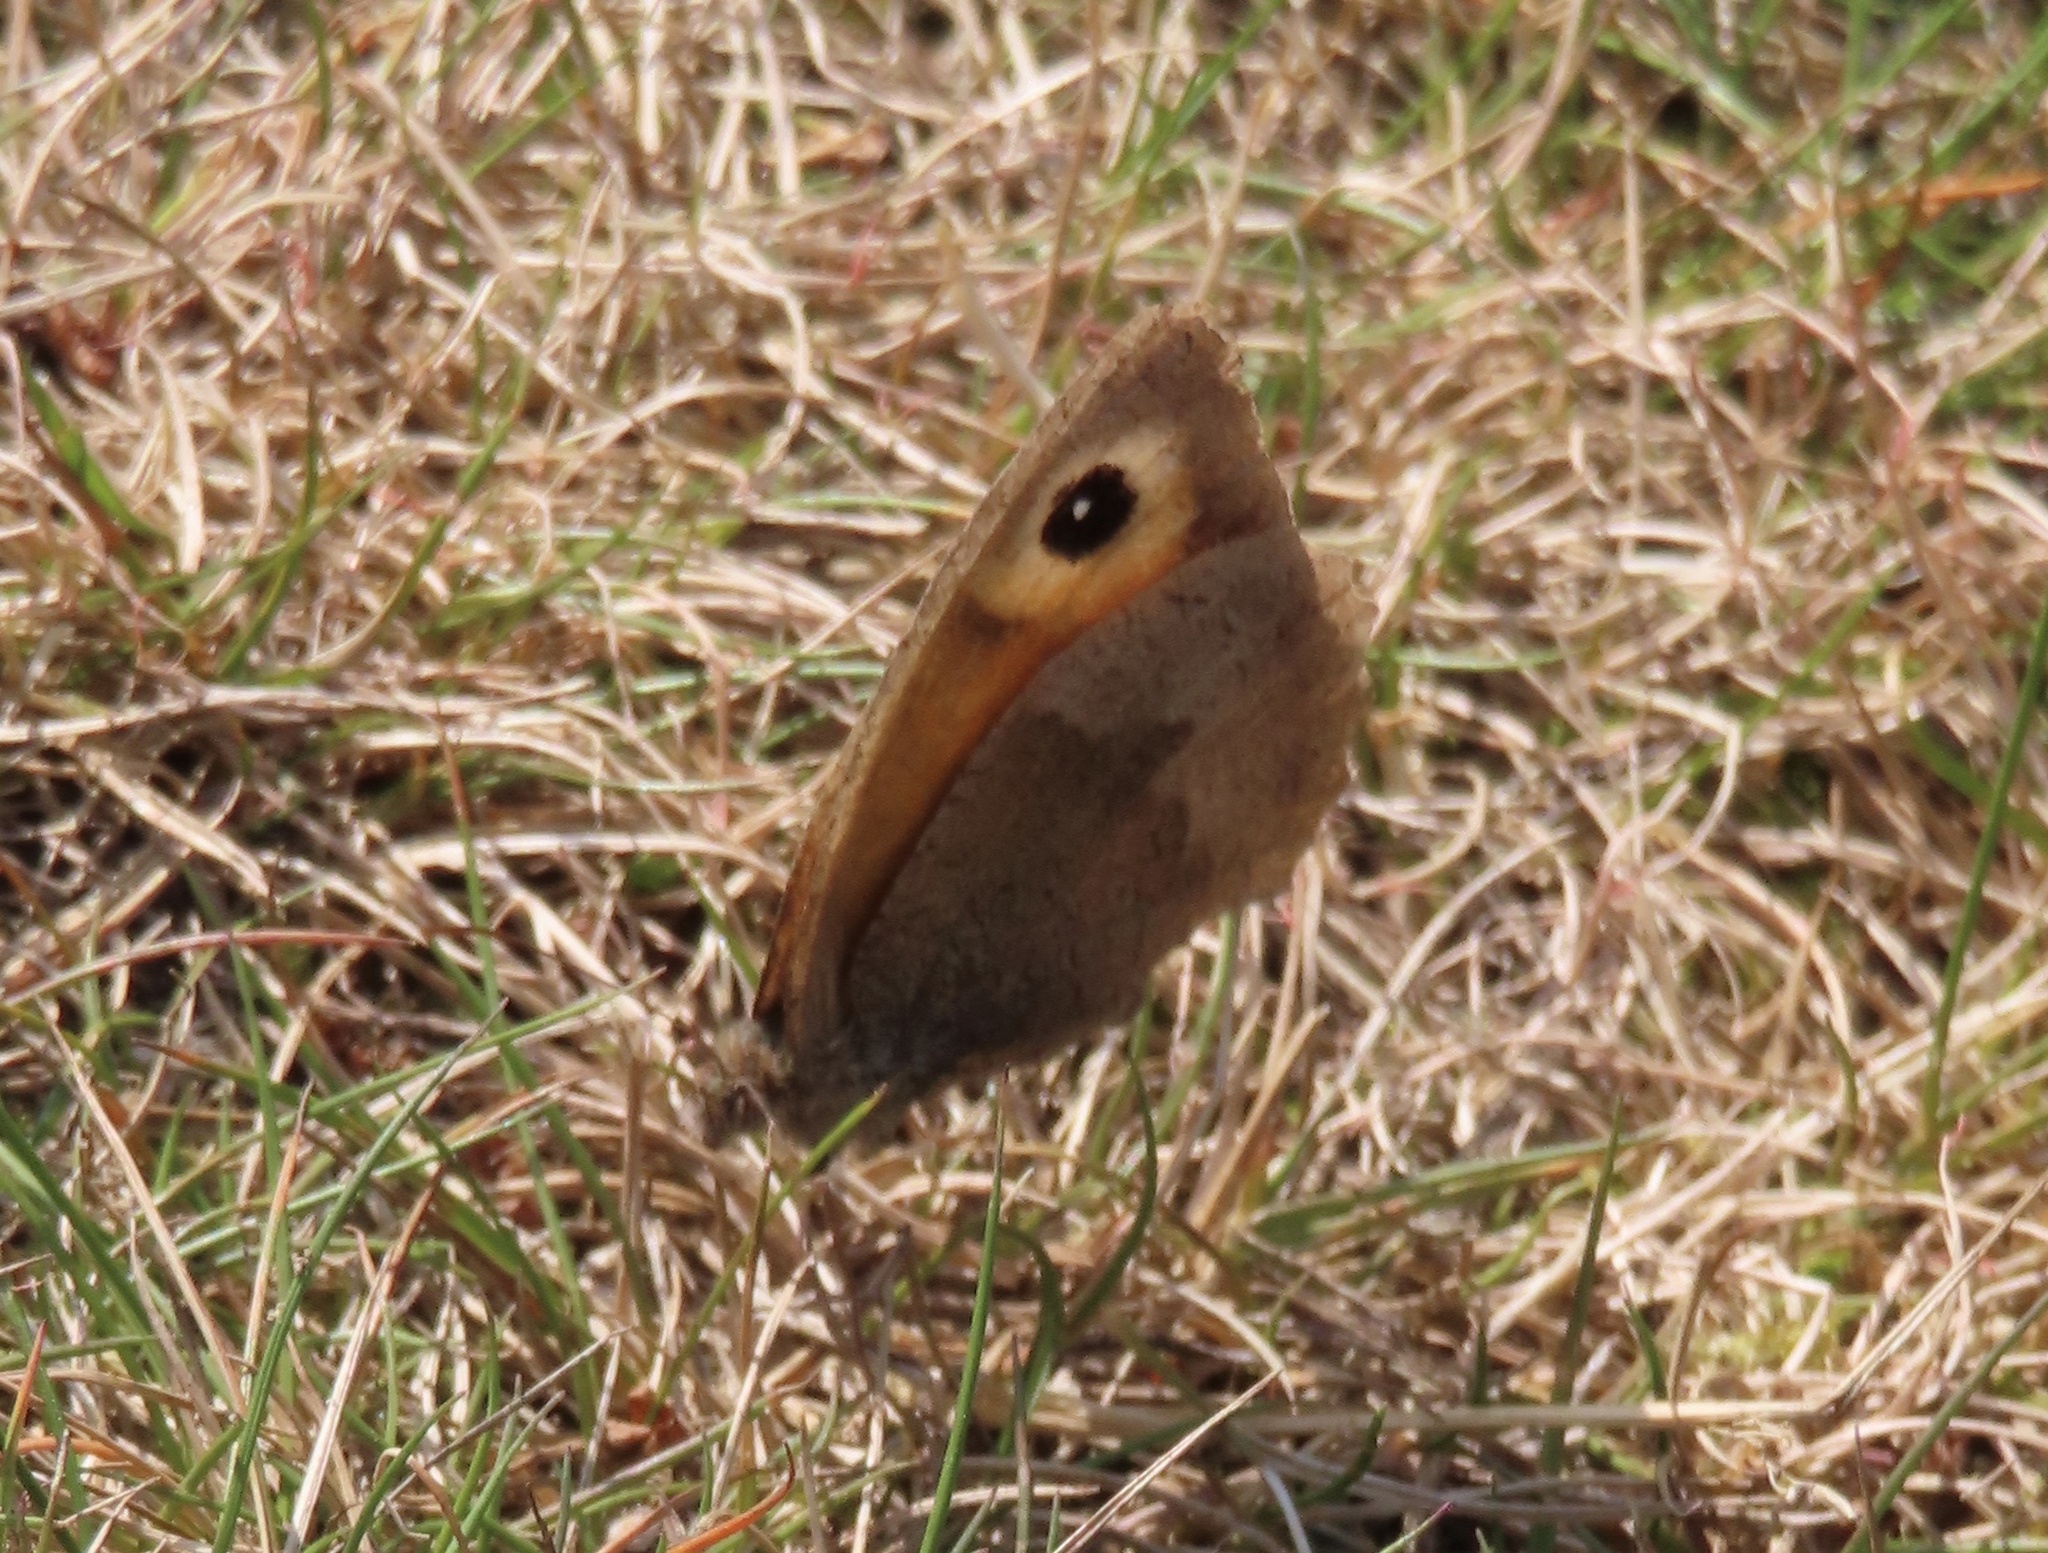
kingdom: Animalia
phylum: Arthropoda
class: Insecta
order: Lepidoptera
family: Nymphalidae
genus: Maniola
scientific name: Maniola jurtina
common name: Meadow brown
